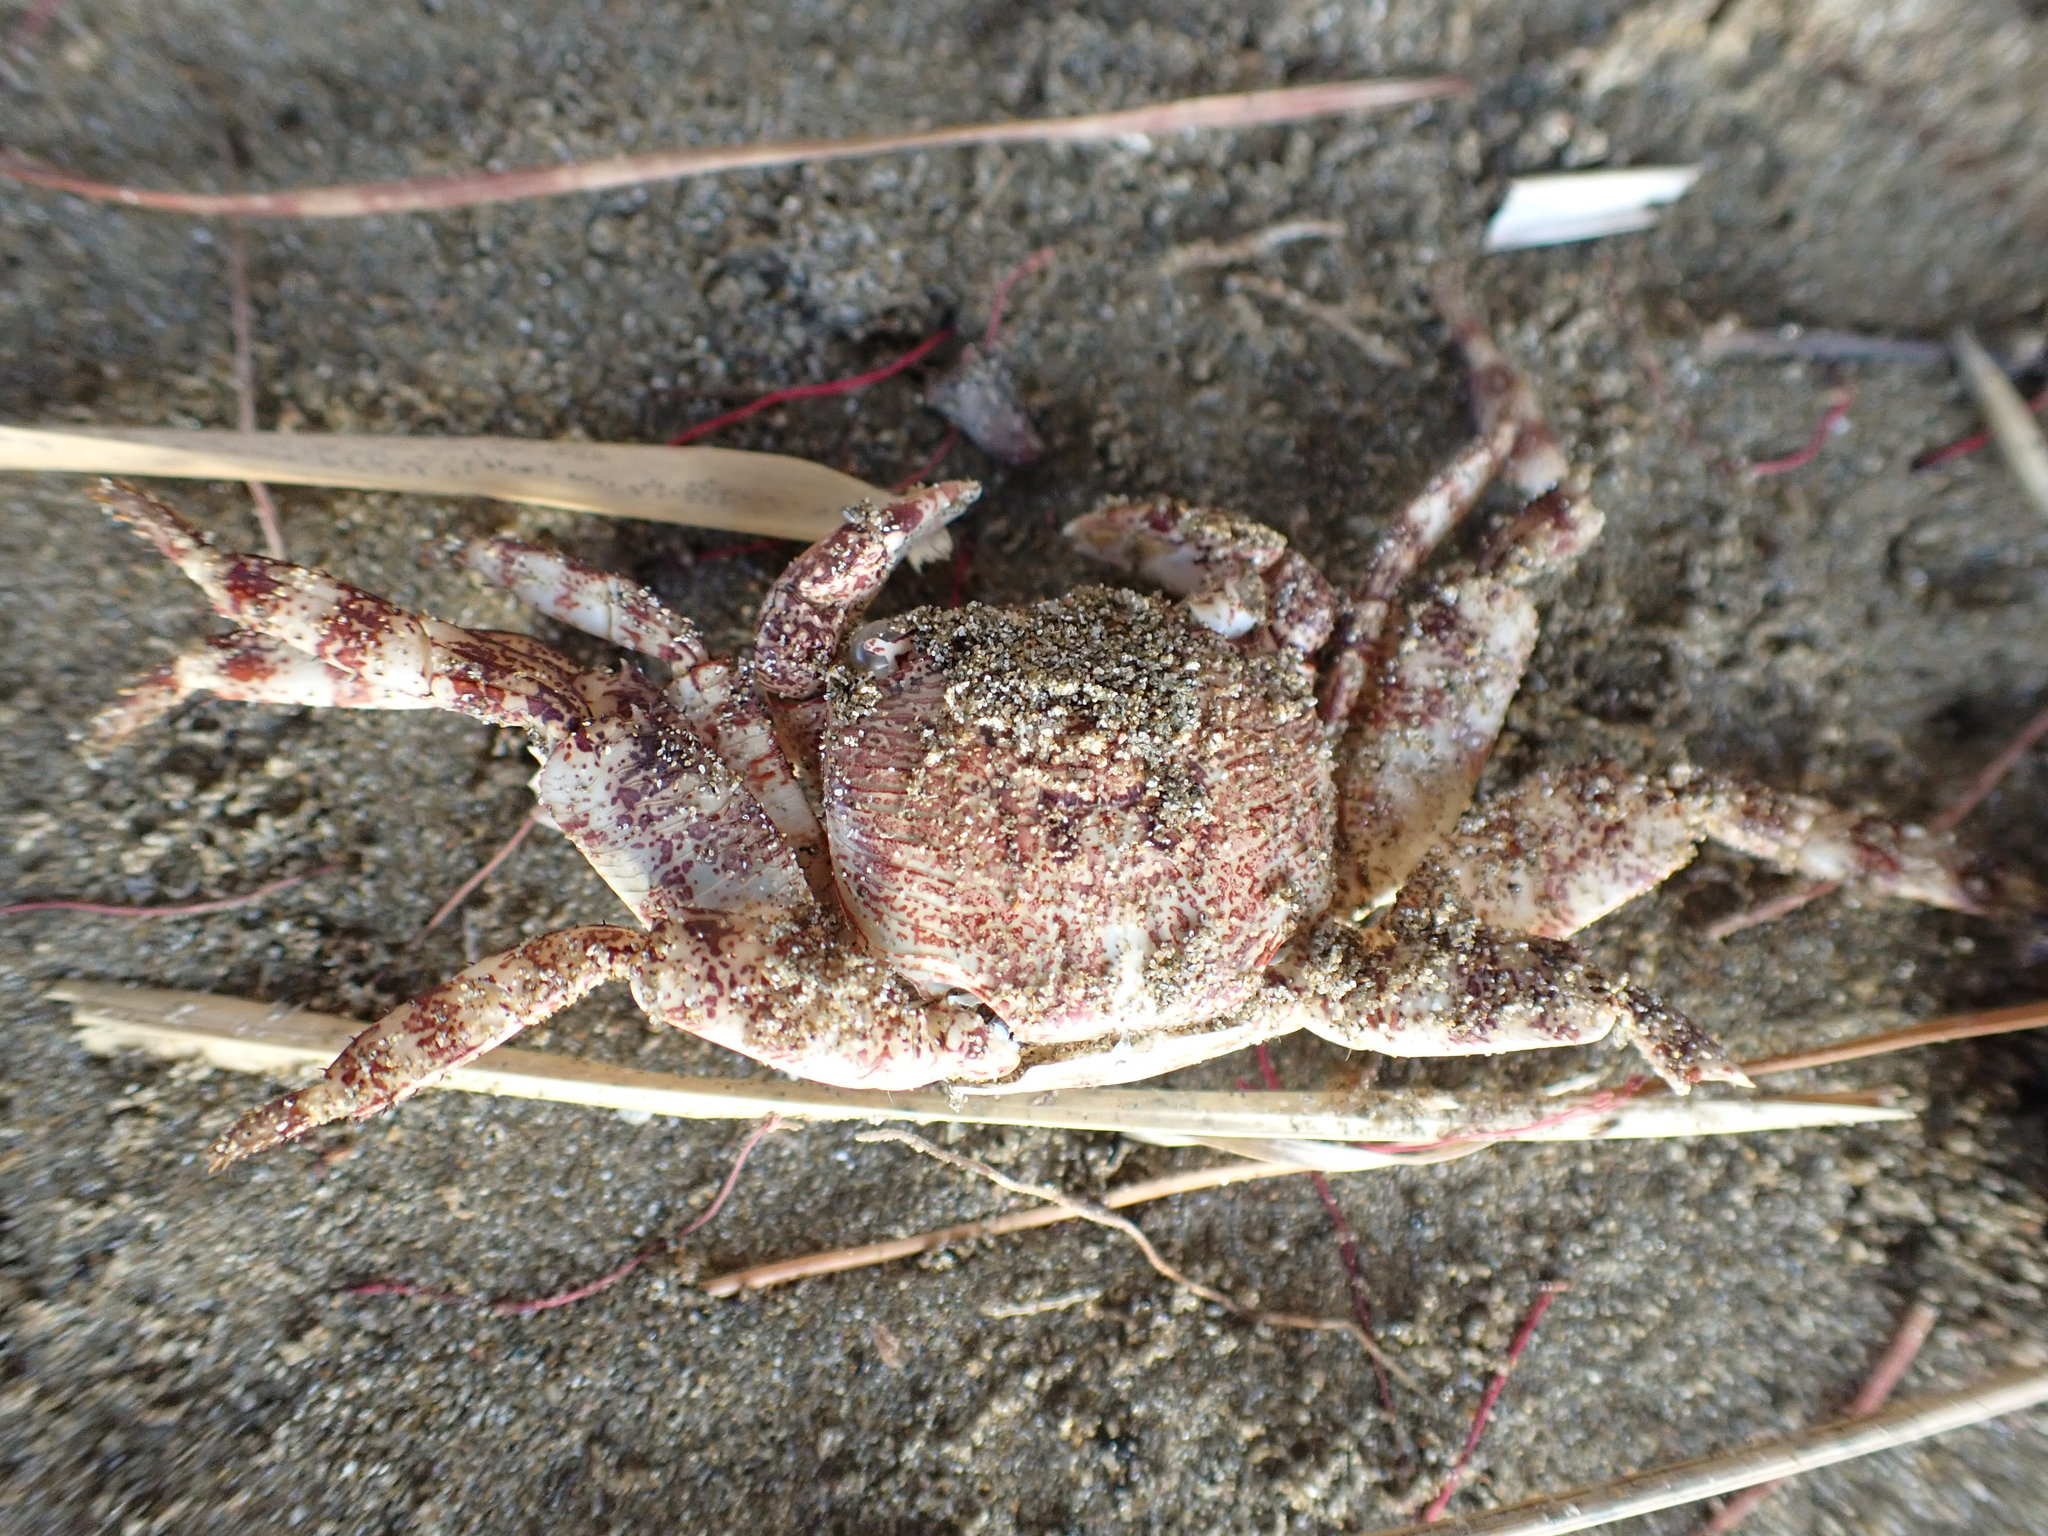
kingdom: Animalia
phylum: Arthropoda
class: Malacostraca
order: Decapoda
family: Grapsidae
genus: Leptograpsus
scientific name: Leptograpsus variegatus
